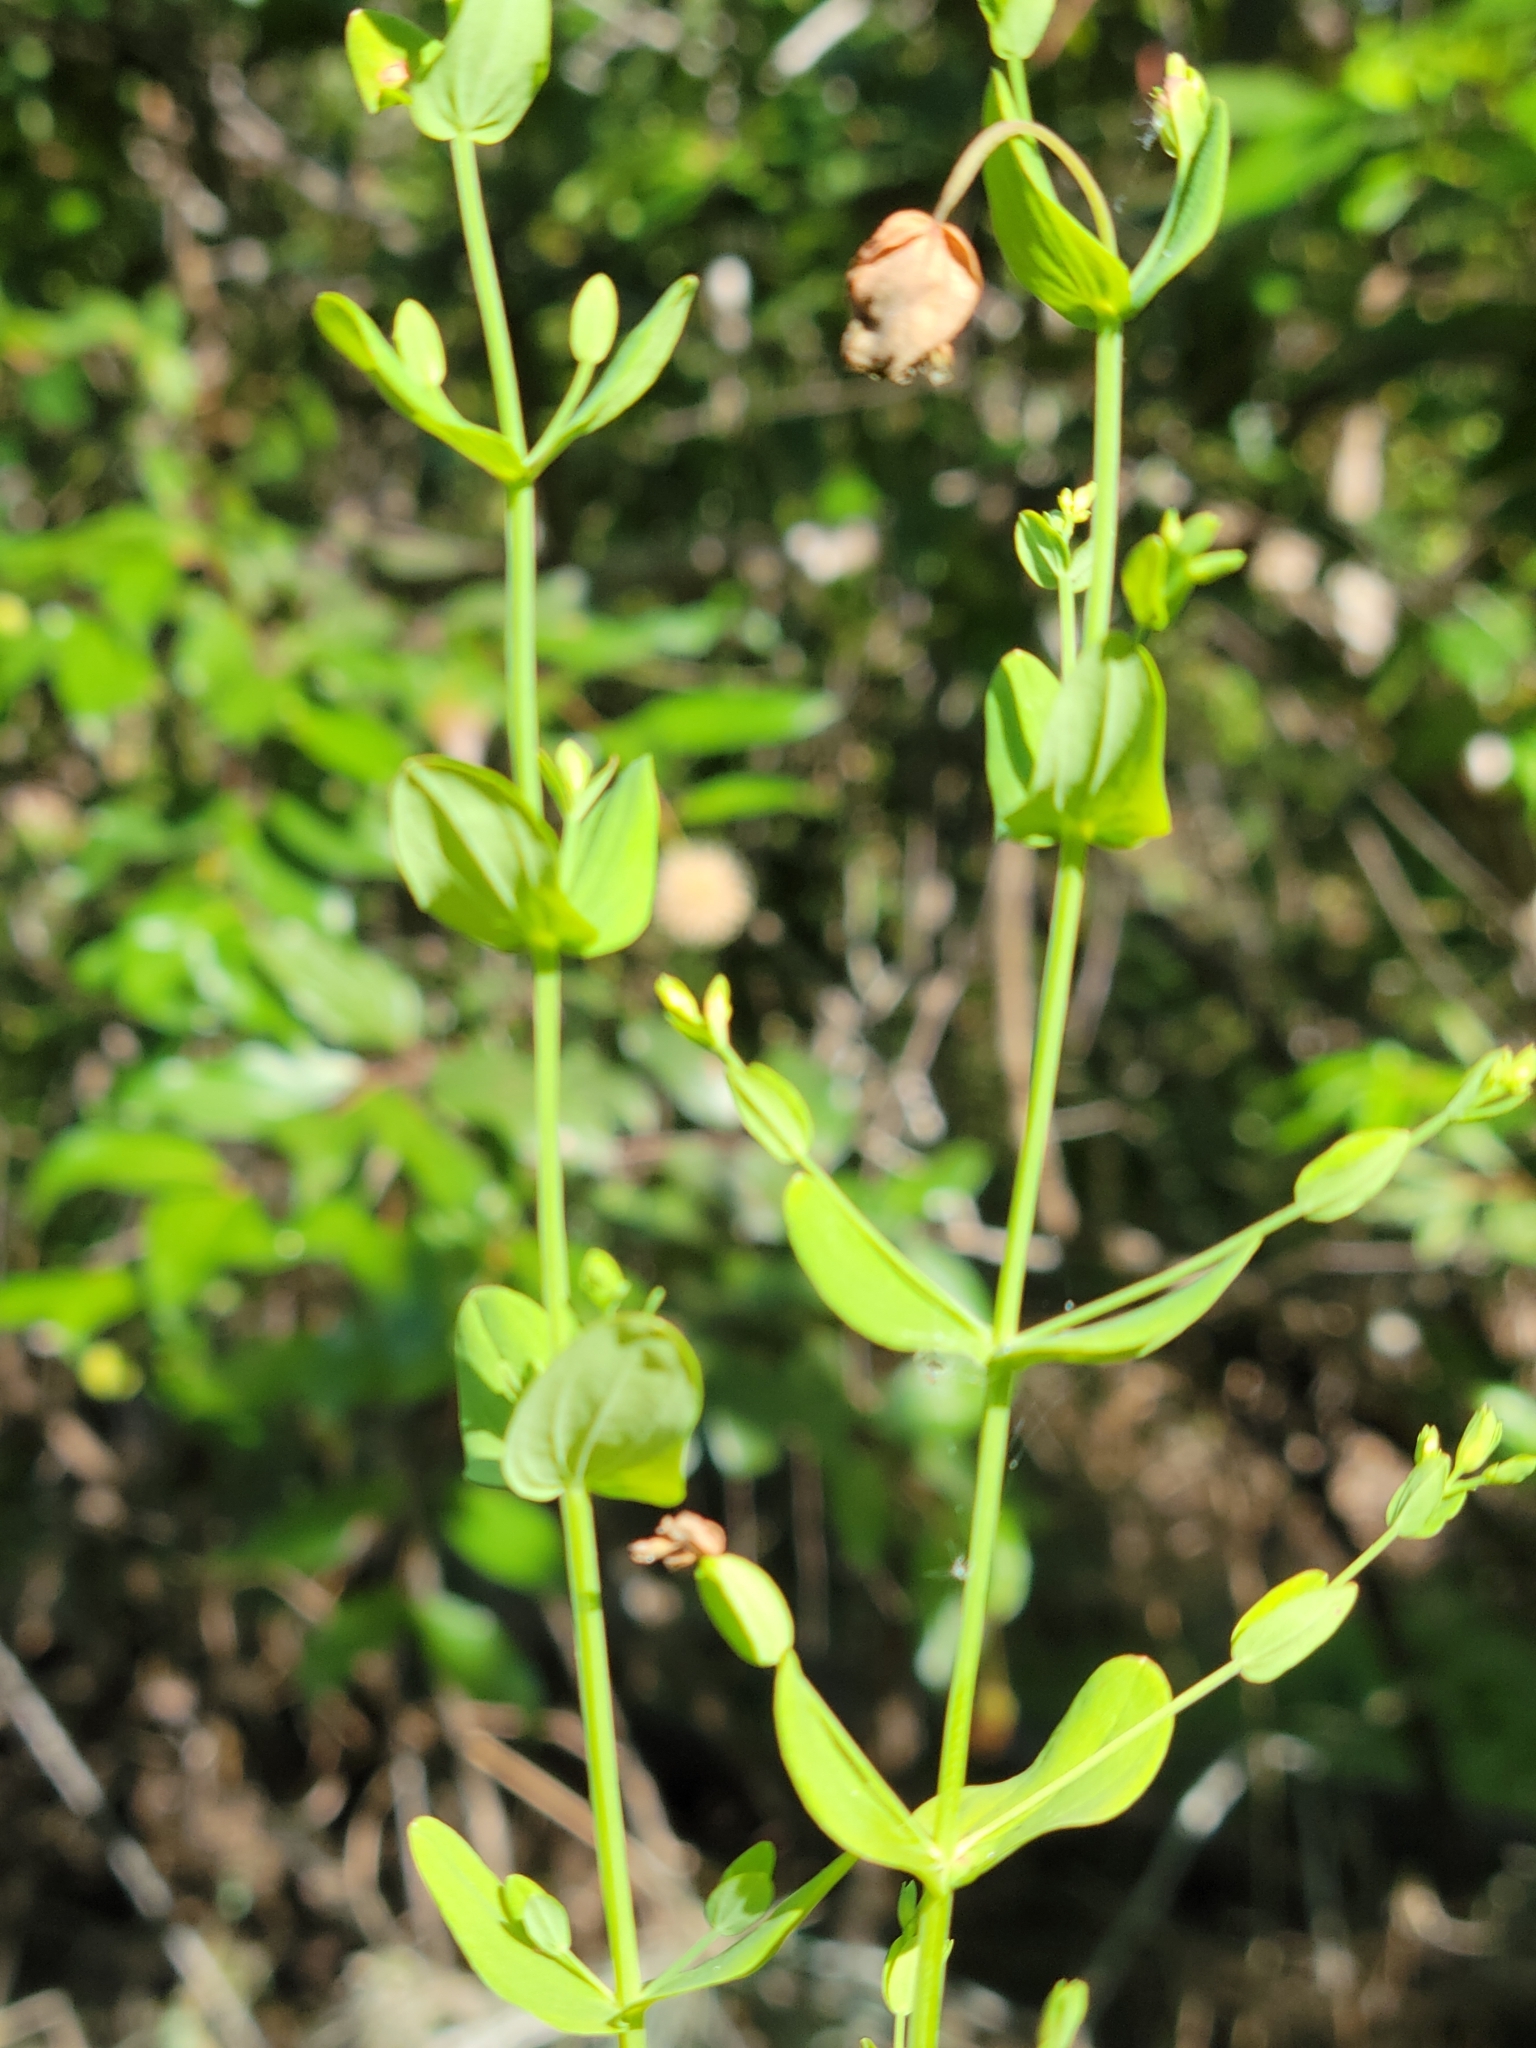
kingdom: Plantae
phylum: Tracheophyta
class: Magnoliopsida
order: Malpighiales
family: Hypericaceae
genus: Hypericum
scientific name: Hypericum mutilum
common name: Dwarf st. john's-wort
